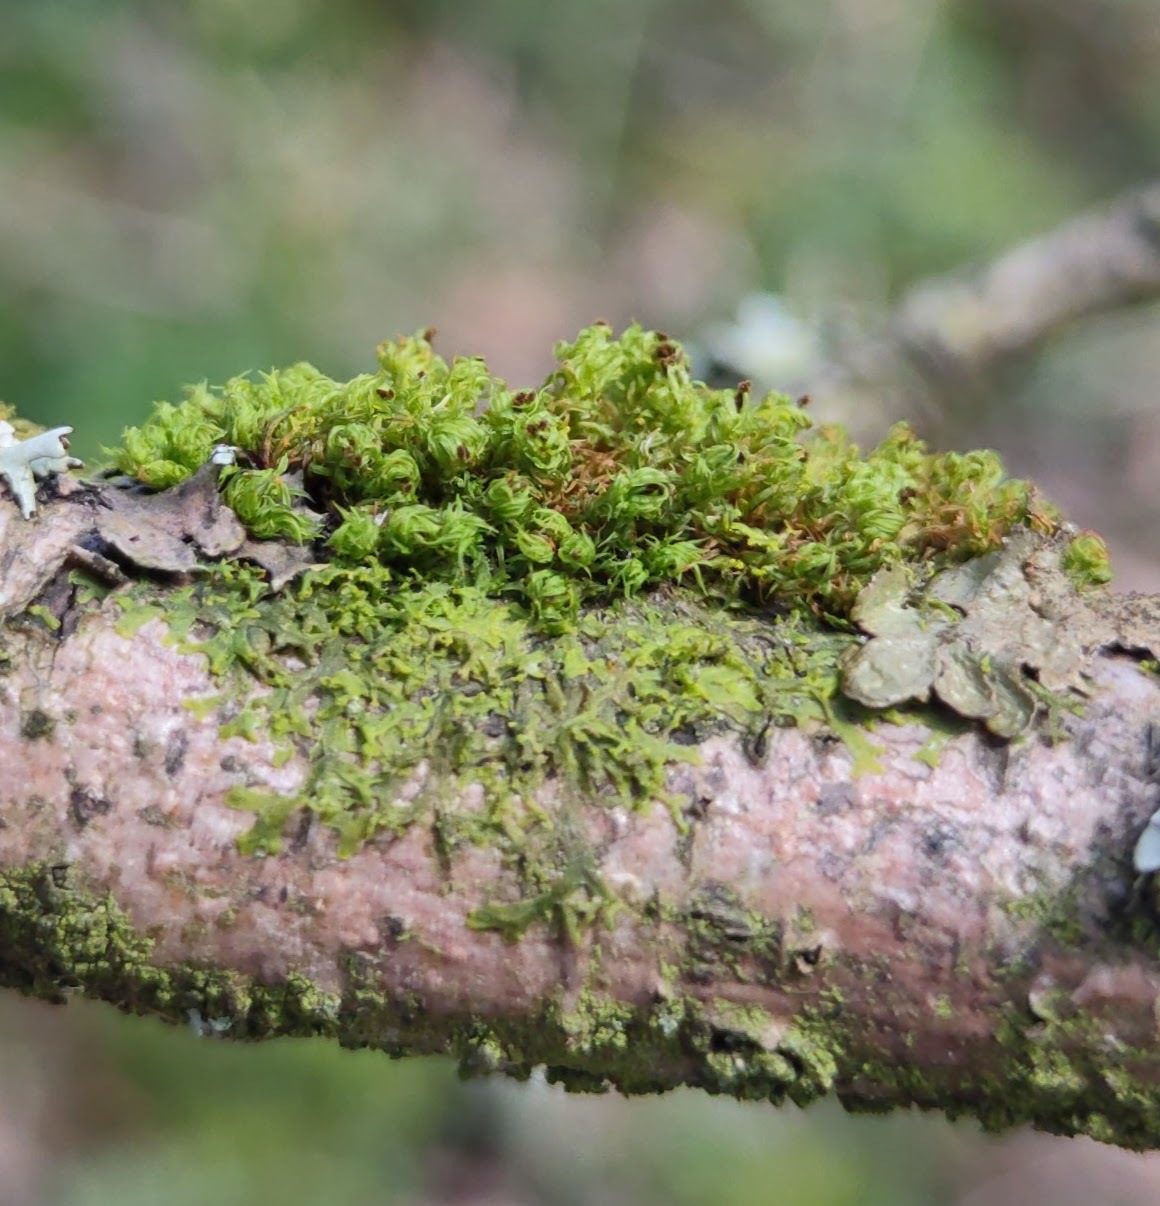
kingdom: Plantae
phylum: Bryophyta
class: Bryopsida
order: Orthotrichales
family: Orthotrichaceae
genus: Plenogemma
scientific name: Plenogemma phyllantha
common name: Frizzled pincushion
